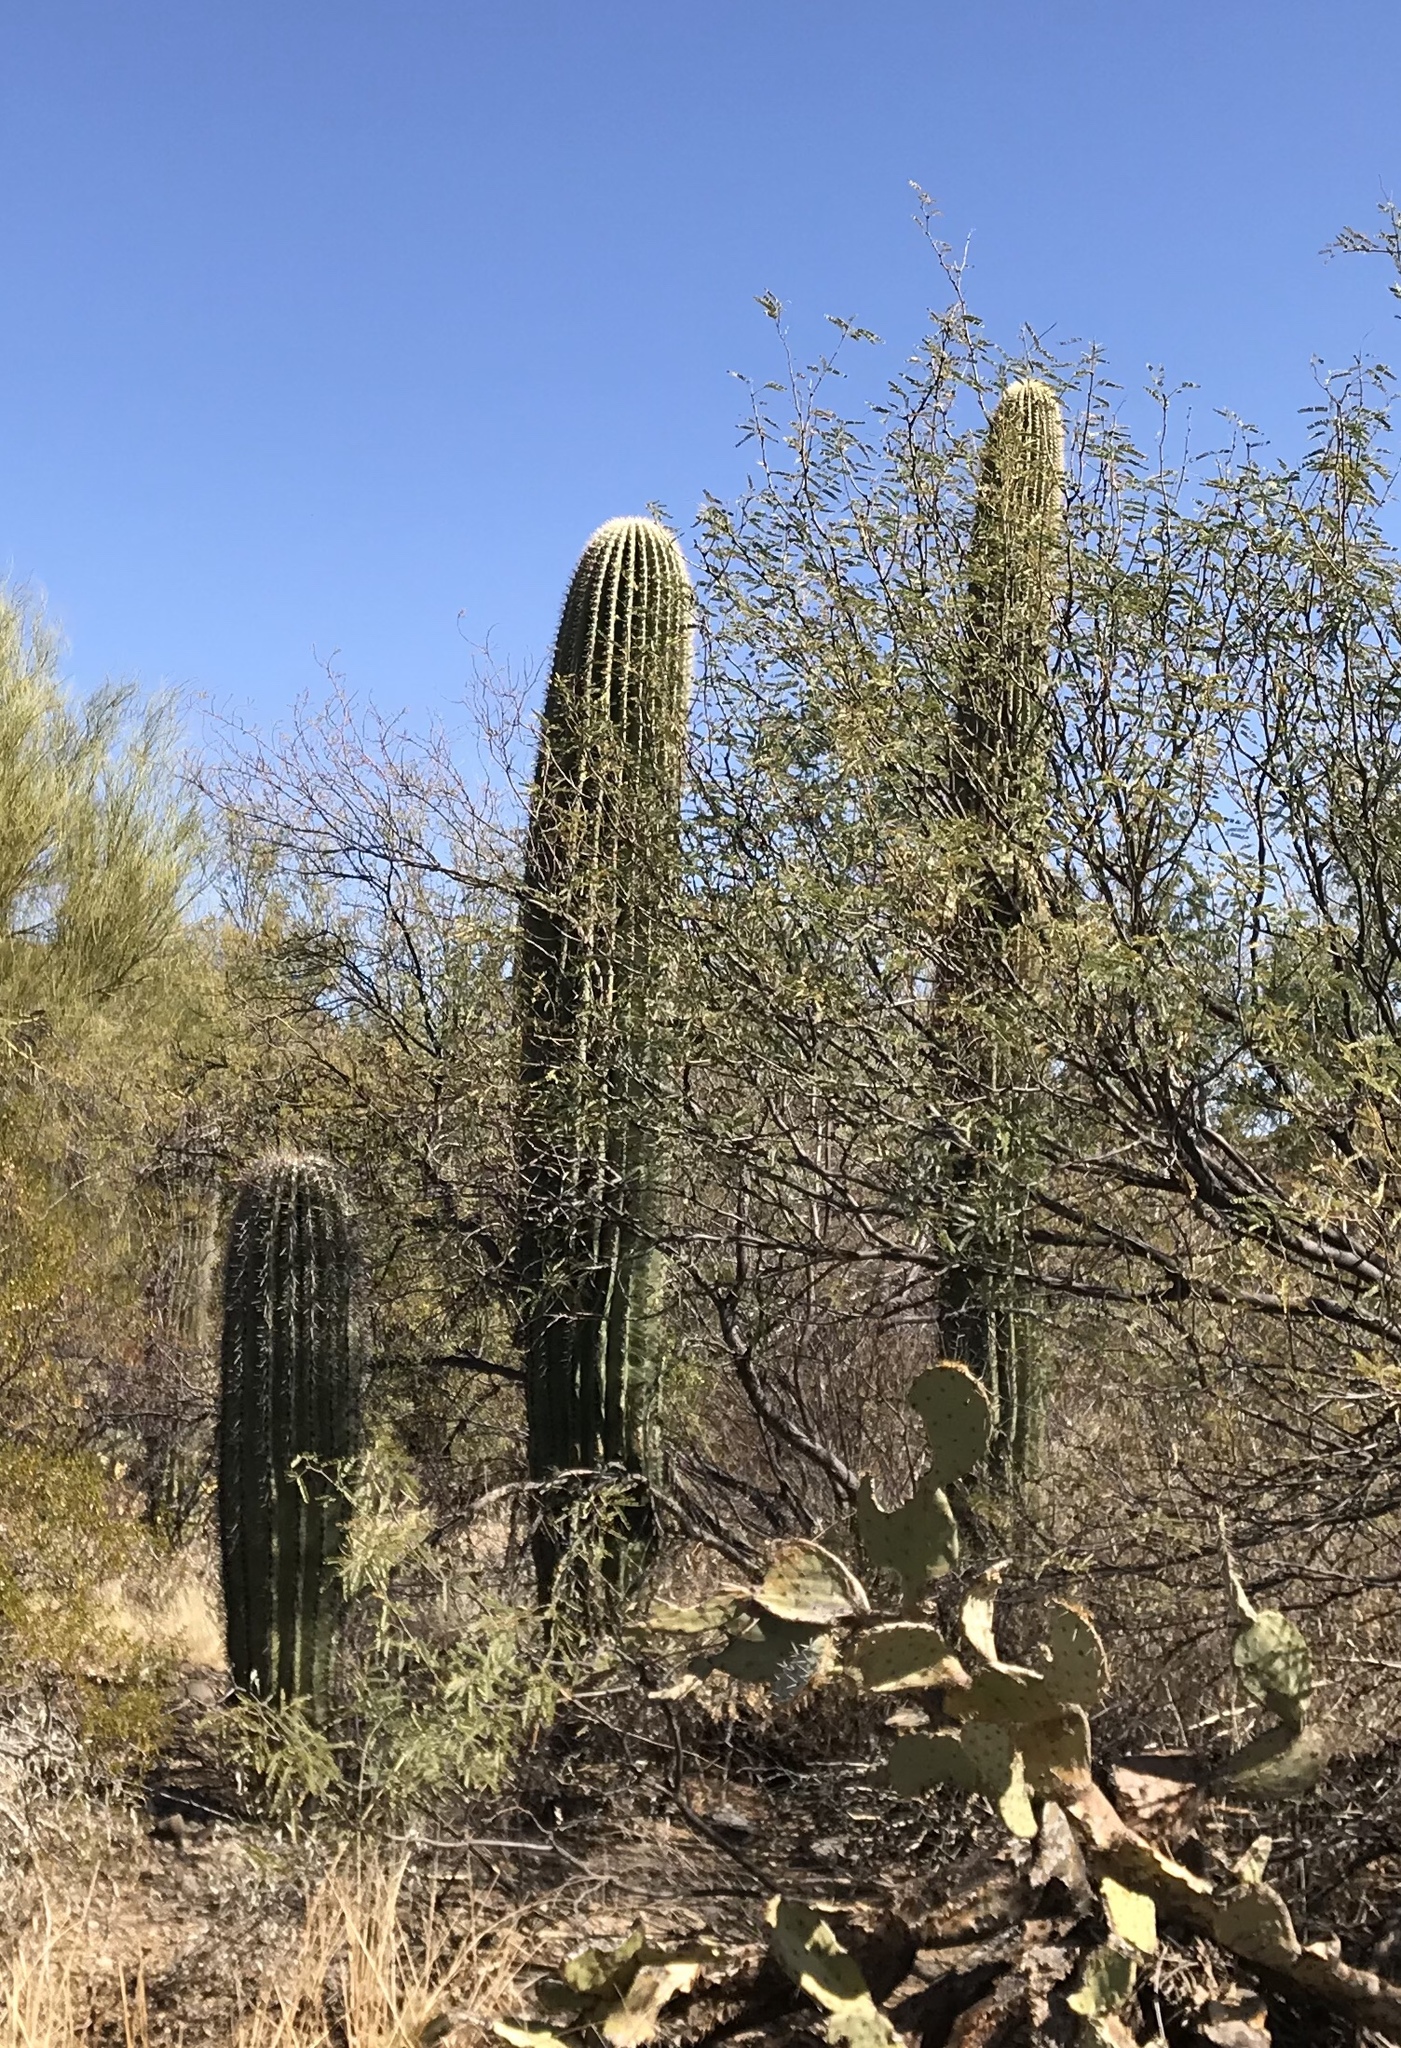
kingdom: Plantae
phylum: Tracheophyta
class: Magnoliopsida
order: Caryophyllales
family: Cactaceae
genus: Carnegiea
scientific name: Carnegiea gigantea
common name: Saguaro
